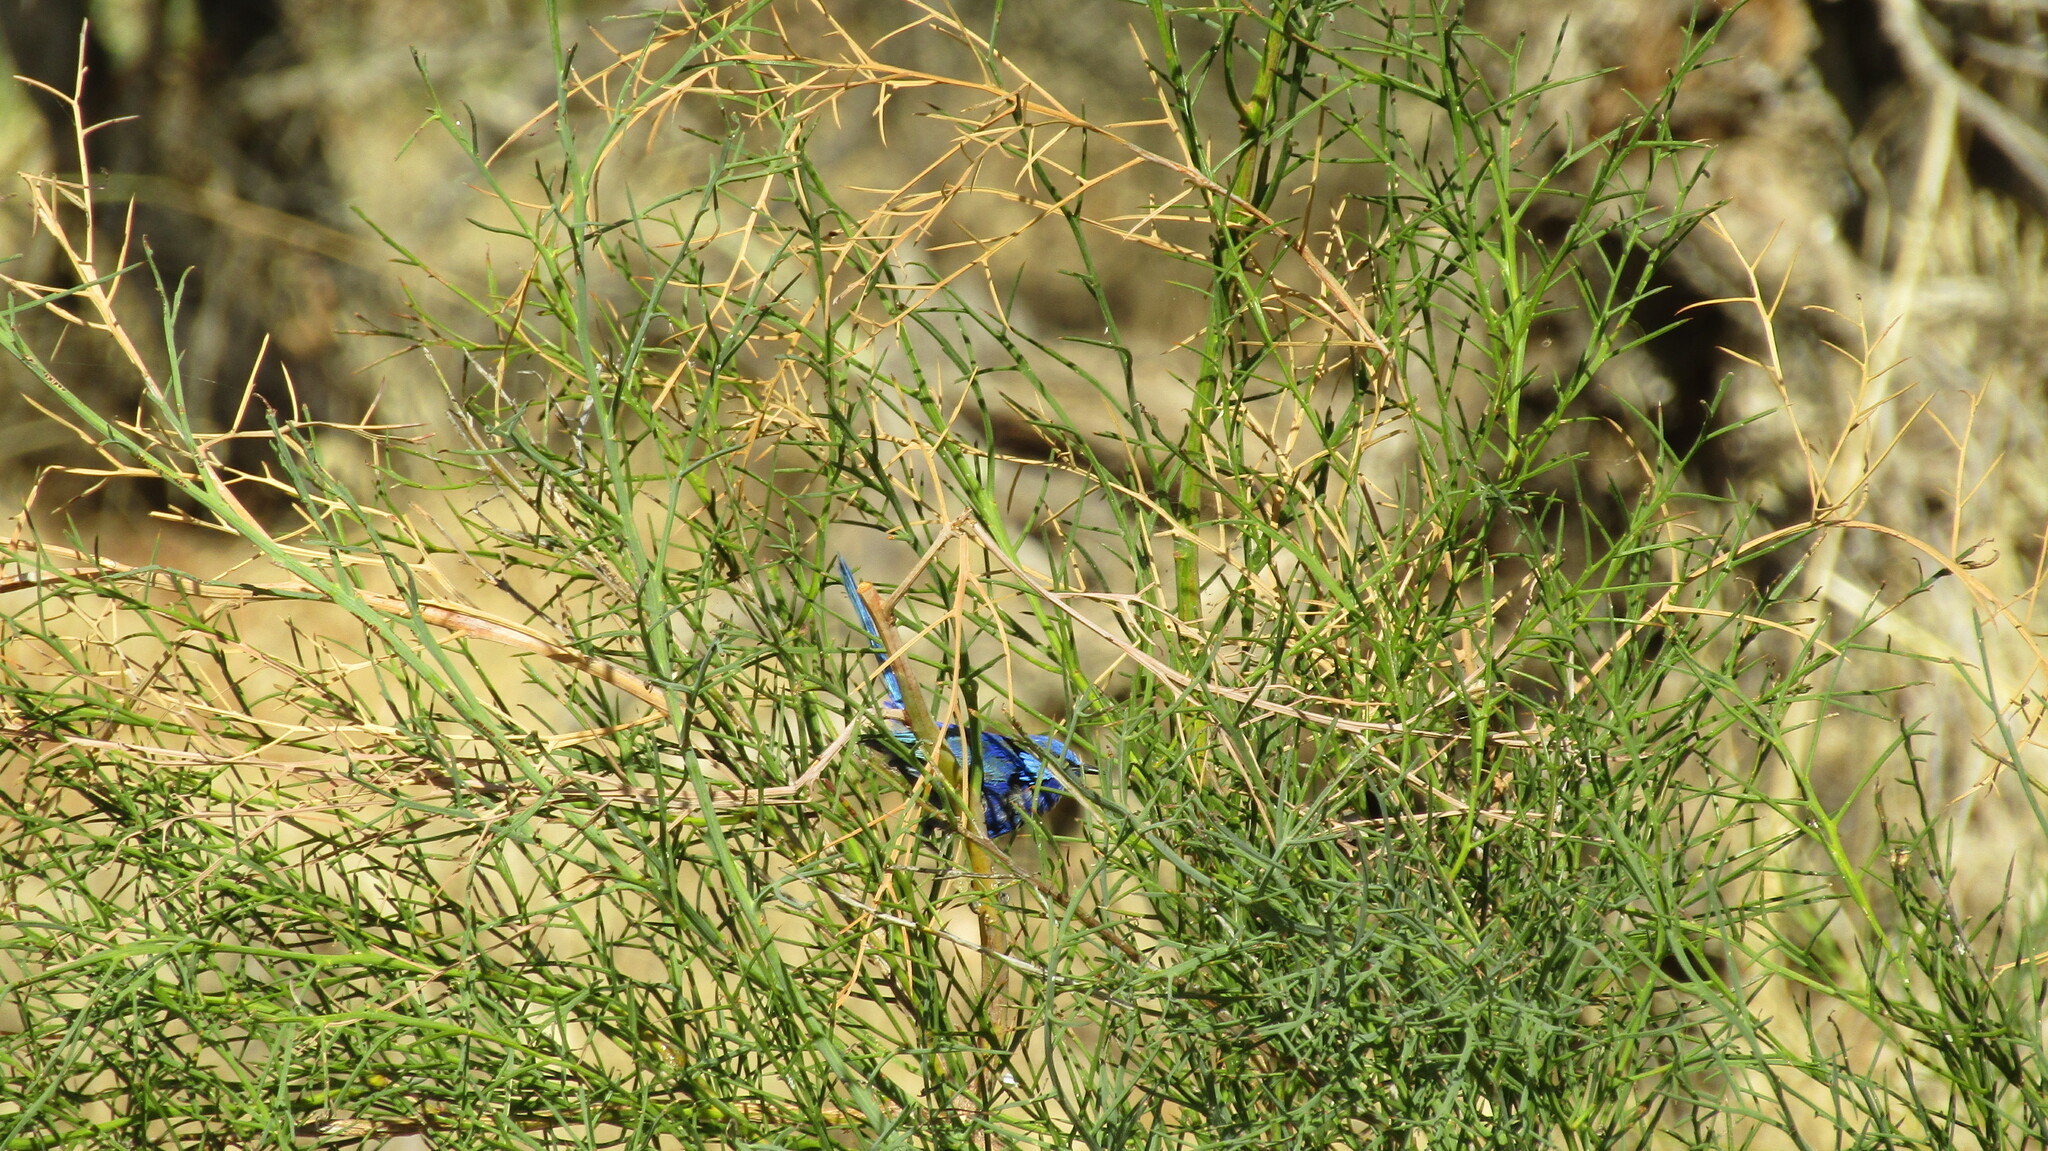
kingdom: Animalia
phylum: Chordata
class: Aves
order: Passeriformes
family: Maluridae
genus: Malurus
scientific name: Malurus splendens
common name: Splendid fairywren
